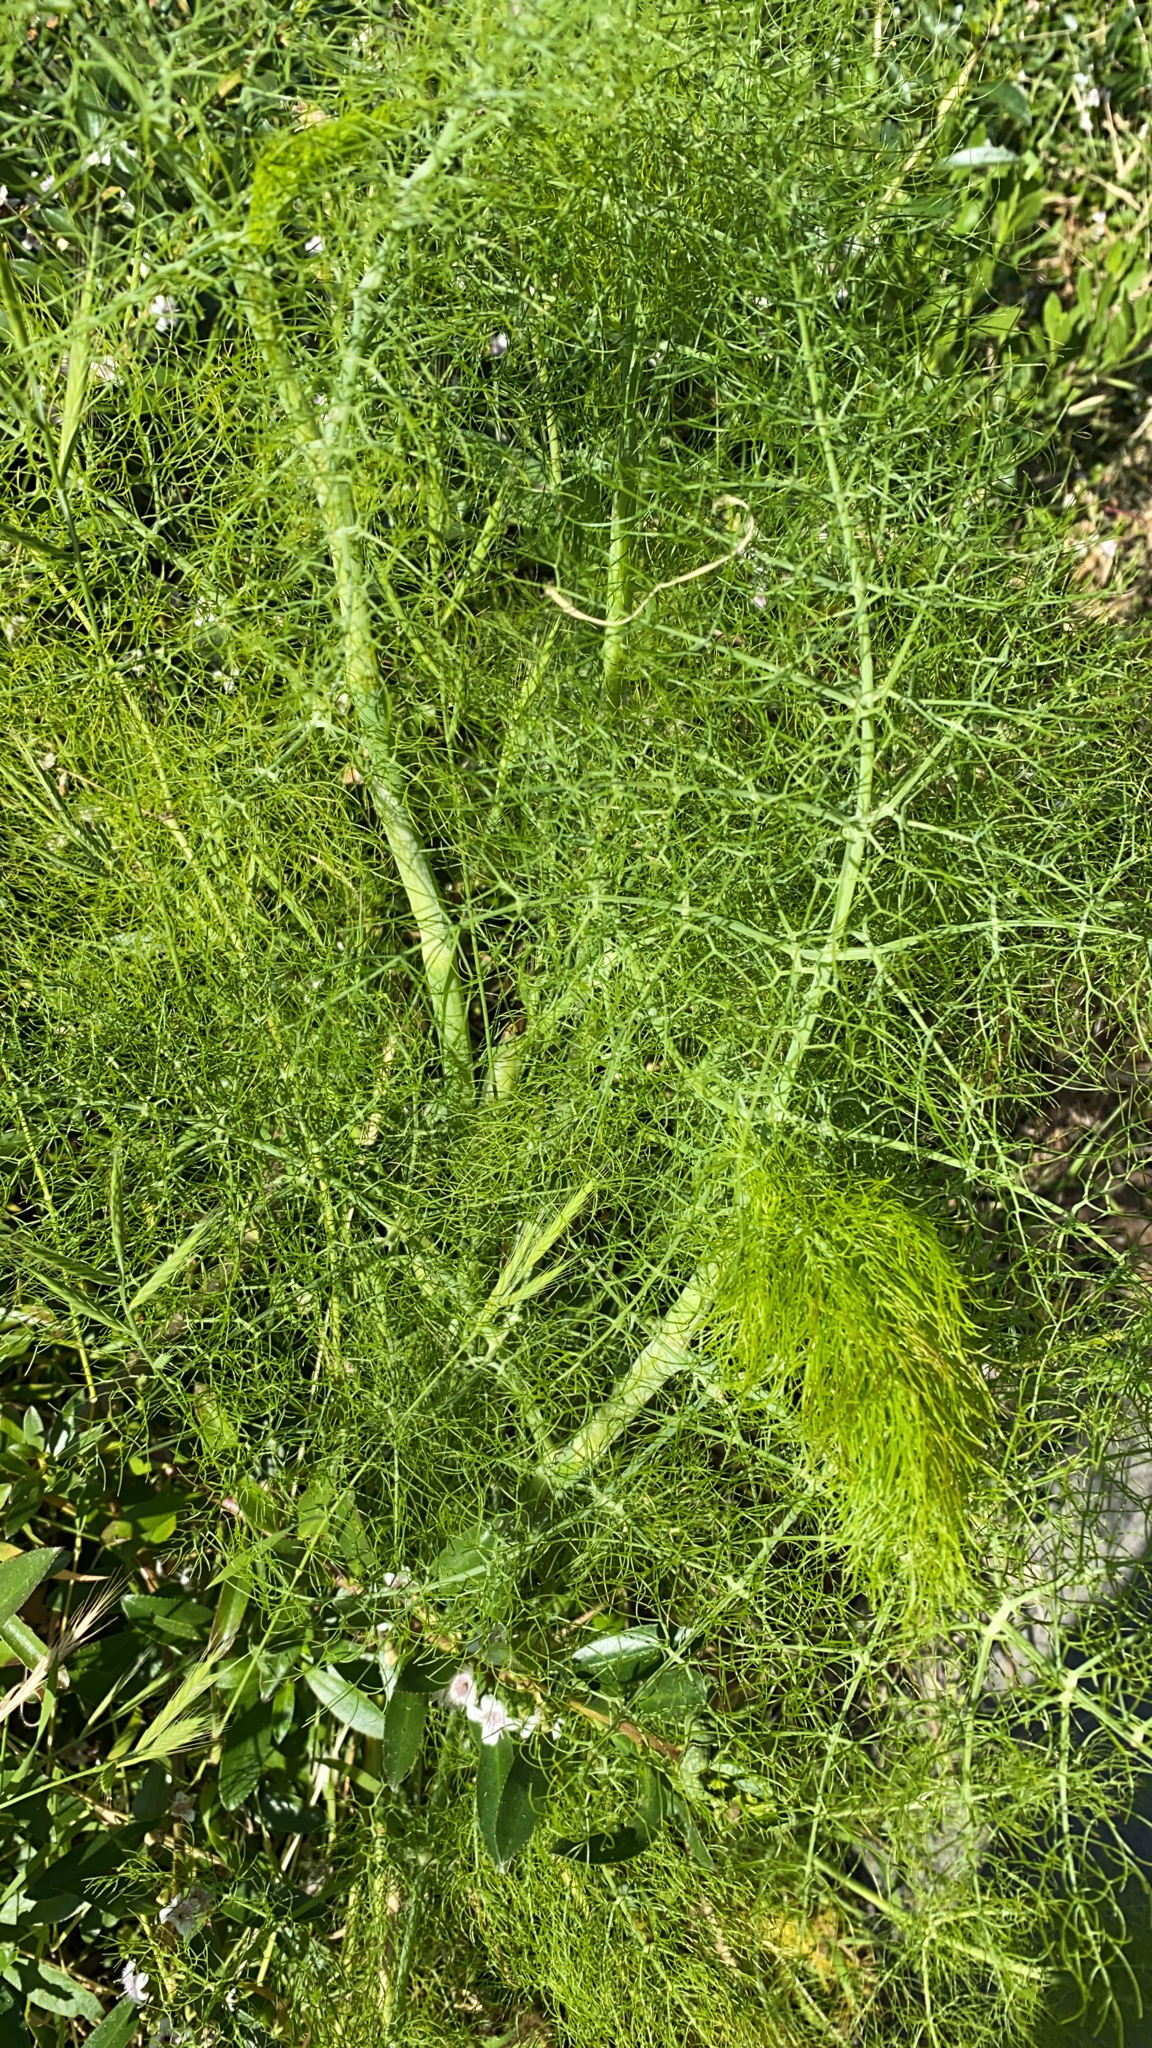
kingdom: Plantae
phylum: Tracheophyta
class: Magnoliopsida
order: Apiales
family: Apiaceae
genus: Foeniculum
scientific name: Foeniculum vulgare
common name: Fennel
